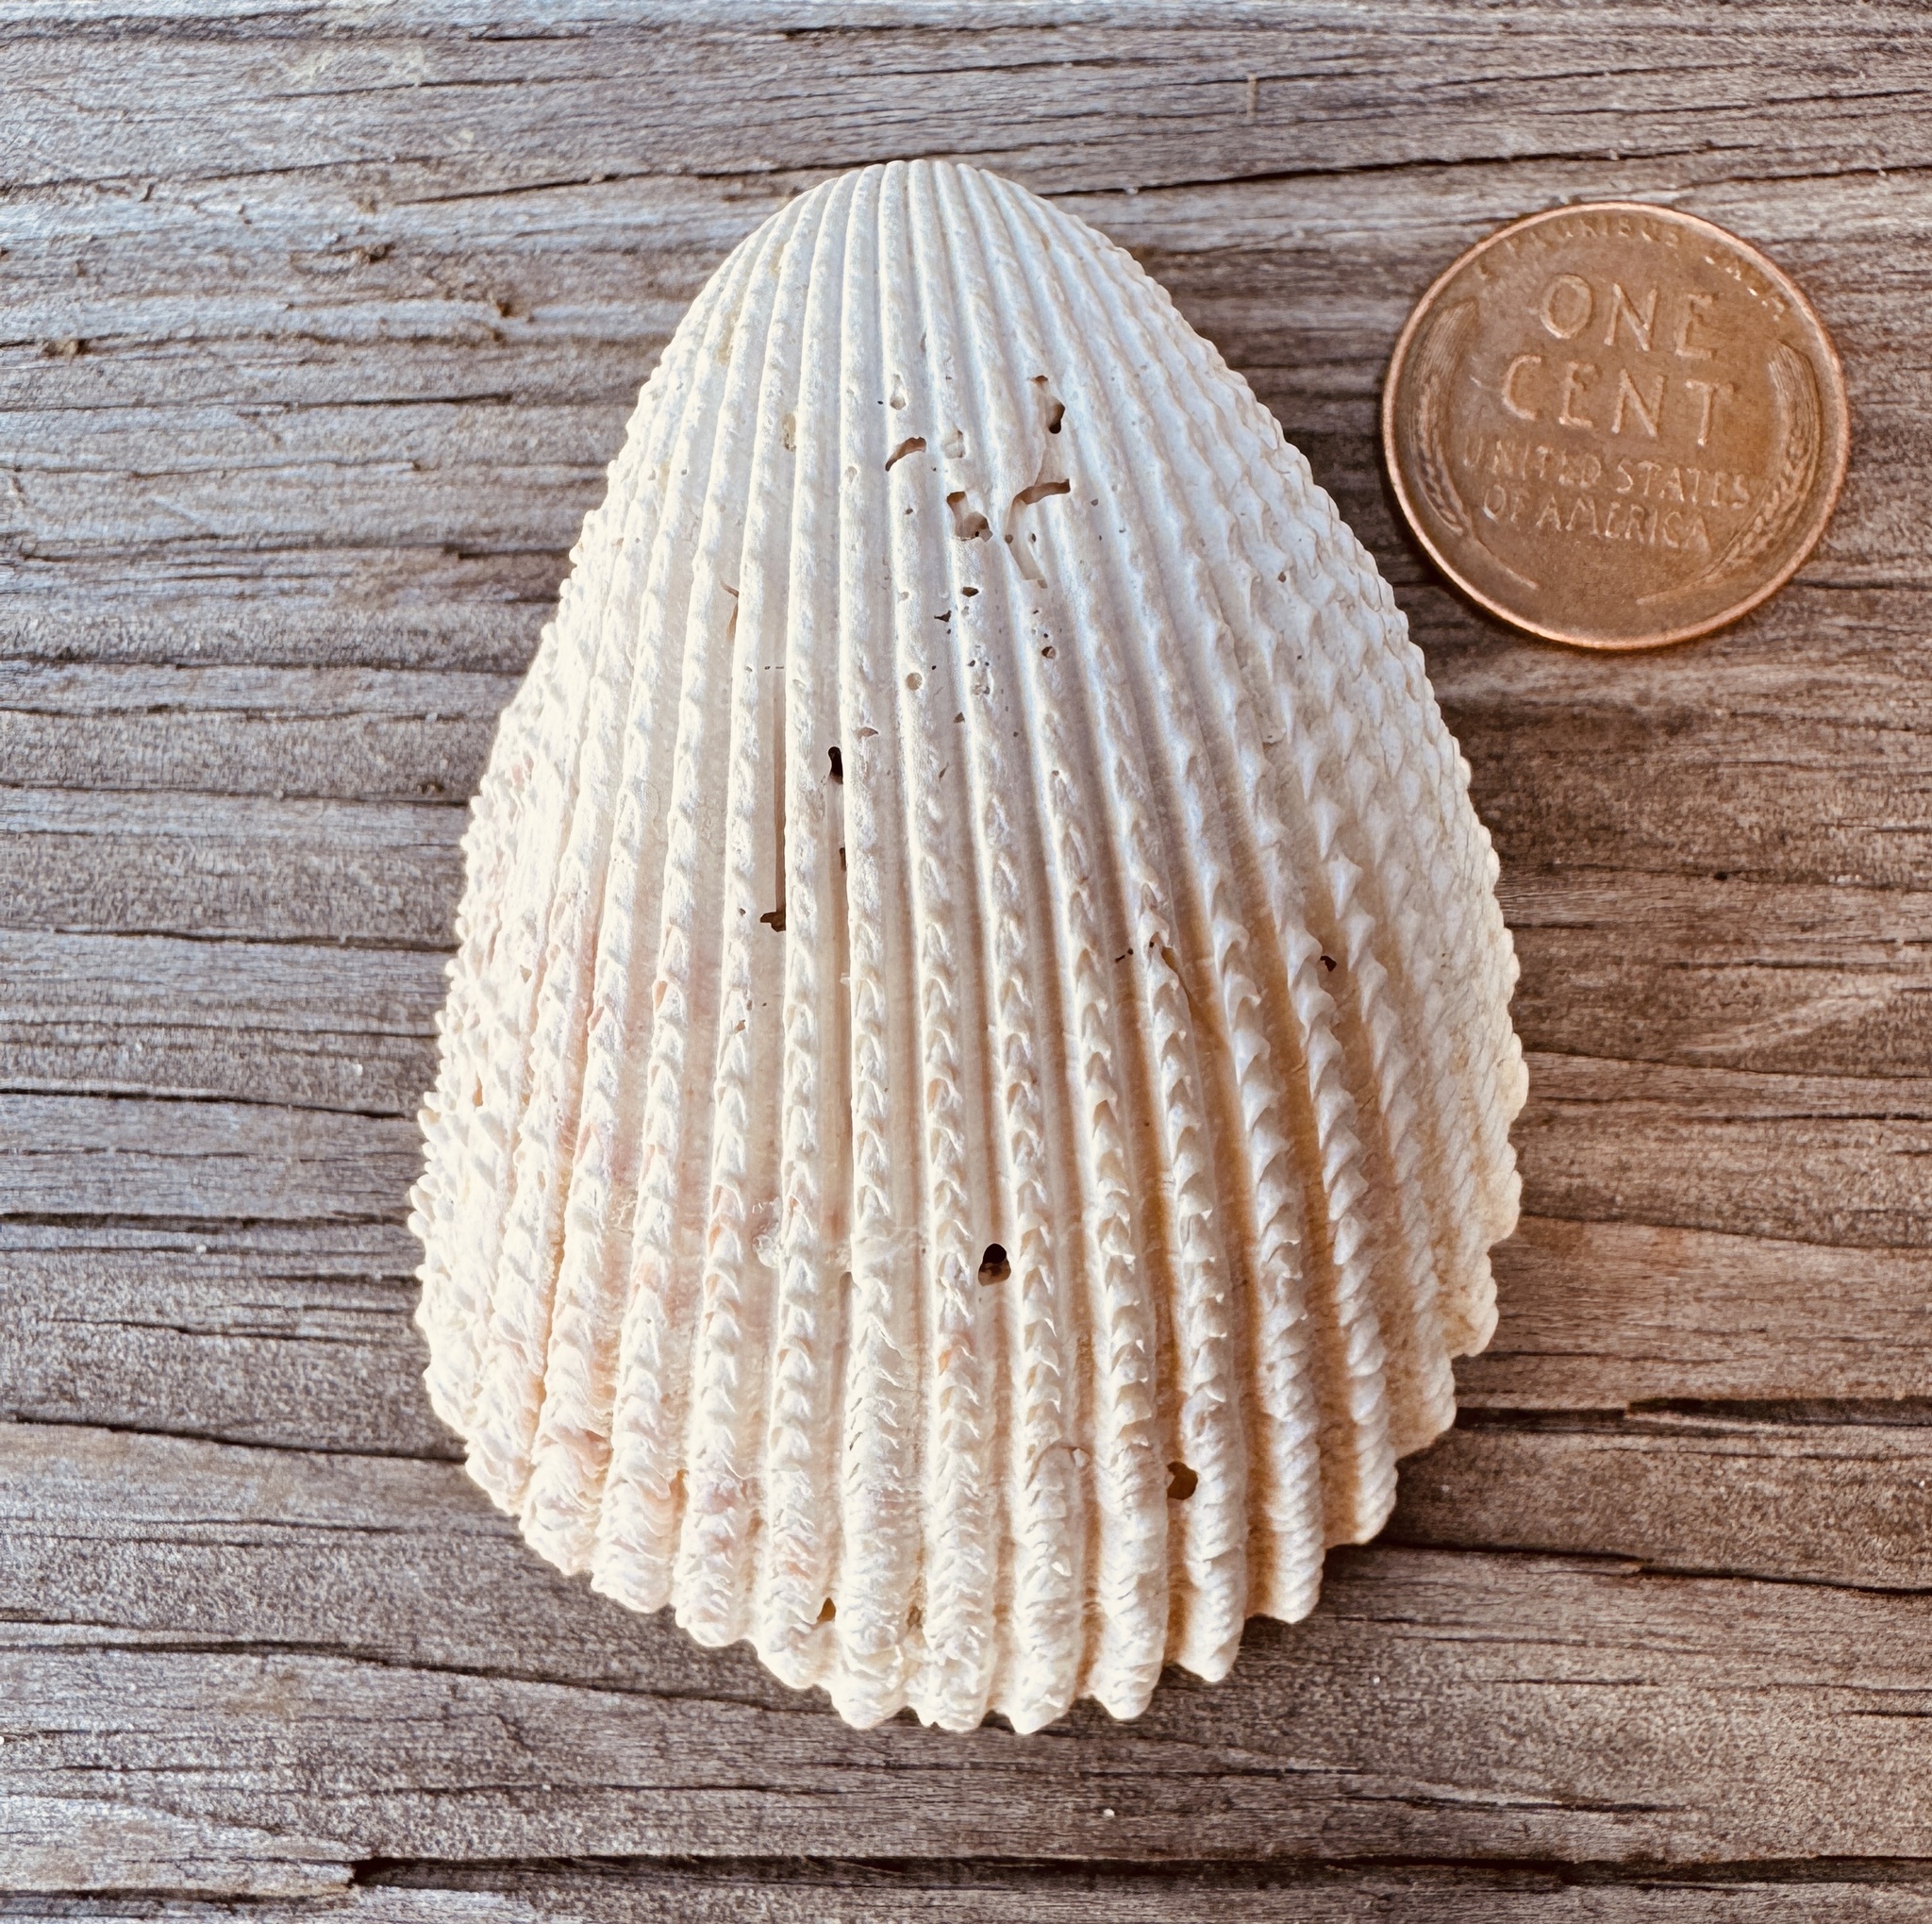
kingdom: Animalia
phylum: Mollusca
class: Bivalvia
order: Cardiida
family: Cardiidae
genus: Trachycardium
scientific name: Trachycardium egmontianum
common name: Florida pricklycockle
